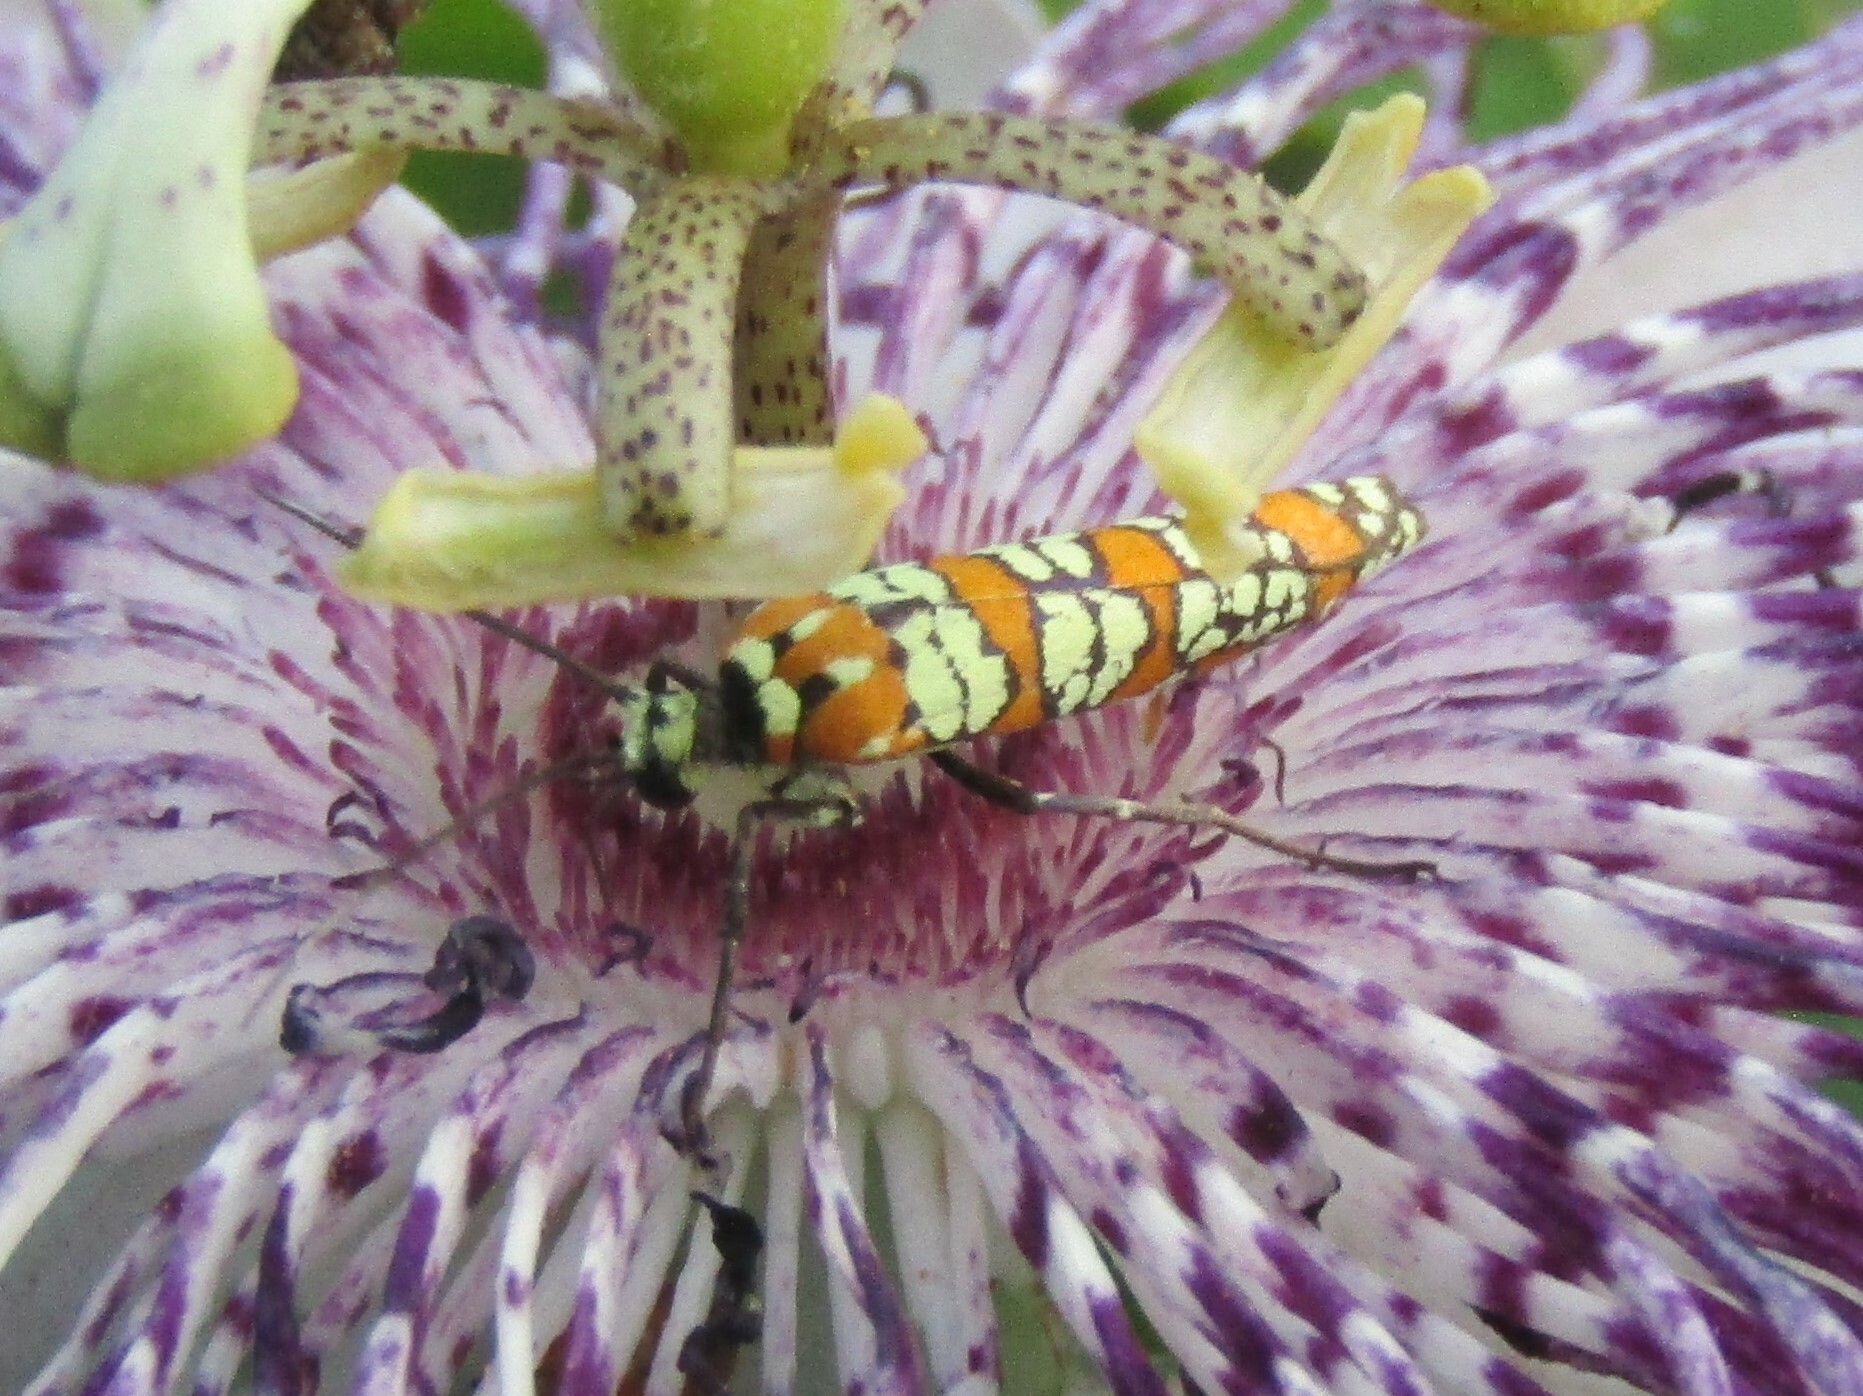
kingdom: Animalia
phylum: Arthropoda
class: Insecta
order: Lepidoptera
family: Attevidae
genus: Atteva
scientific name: Atteva punctella
